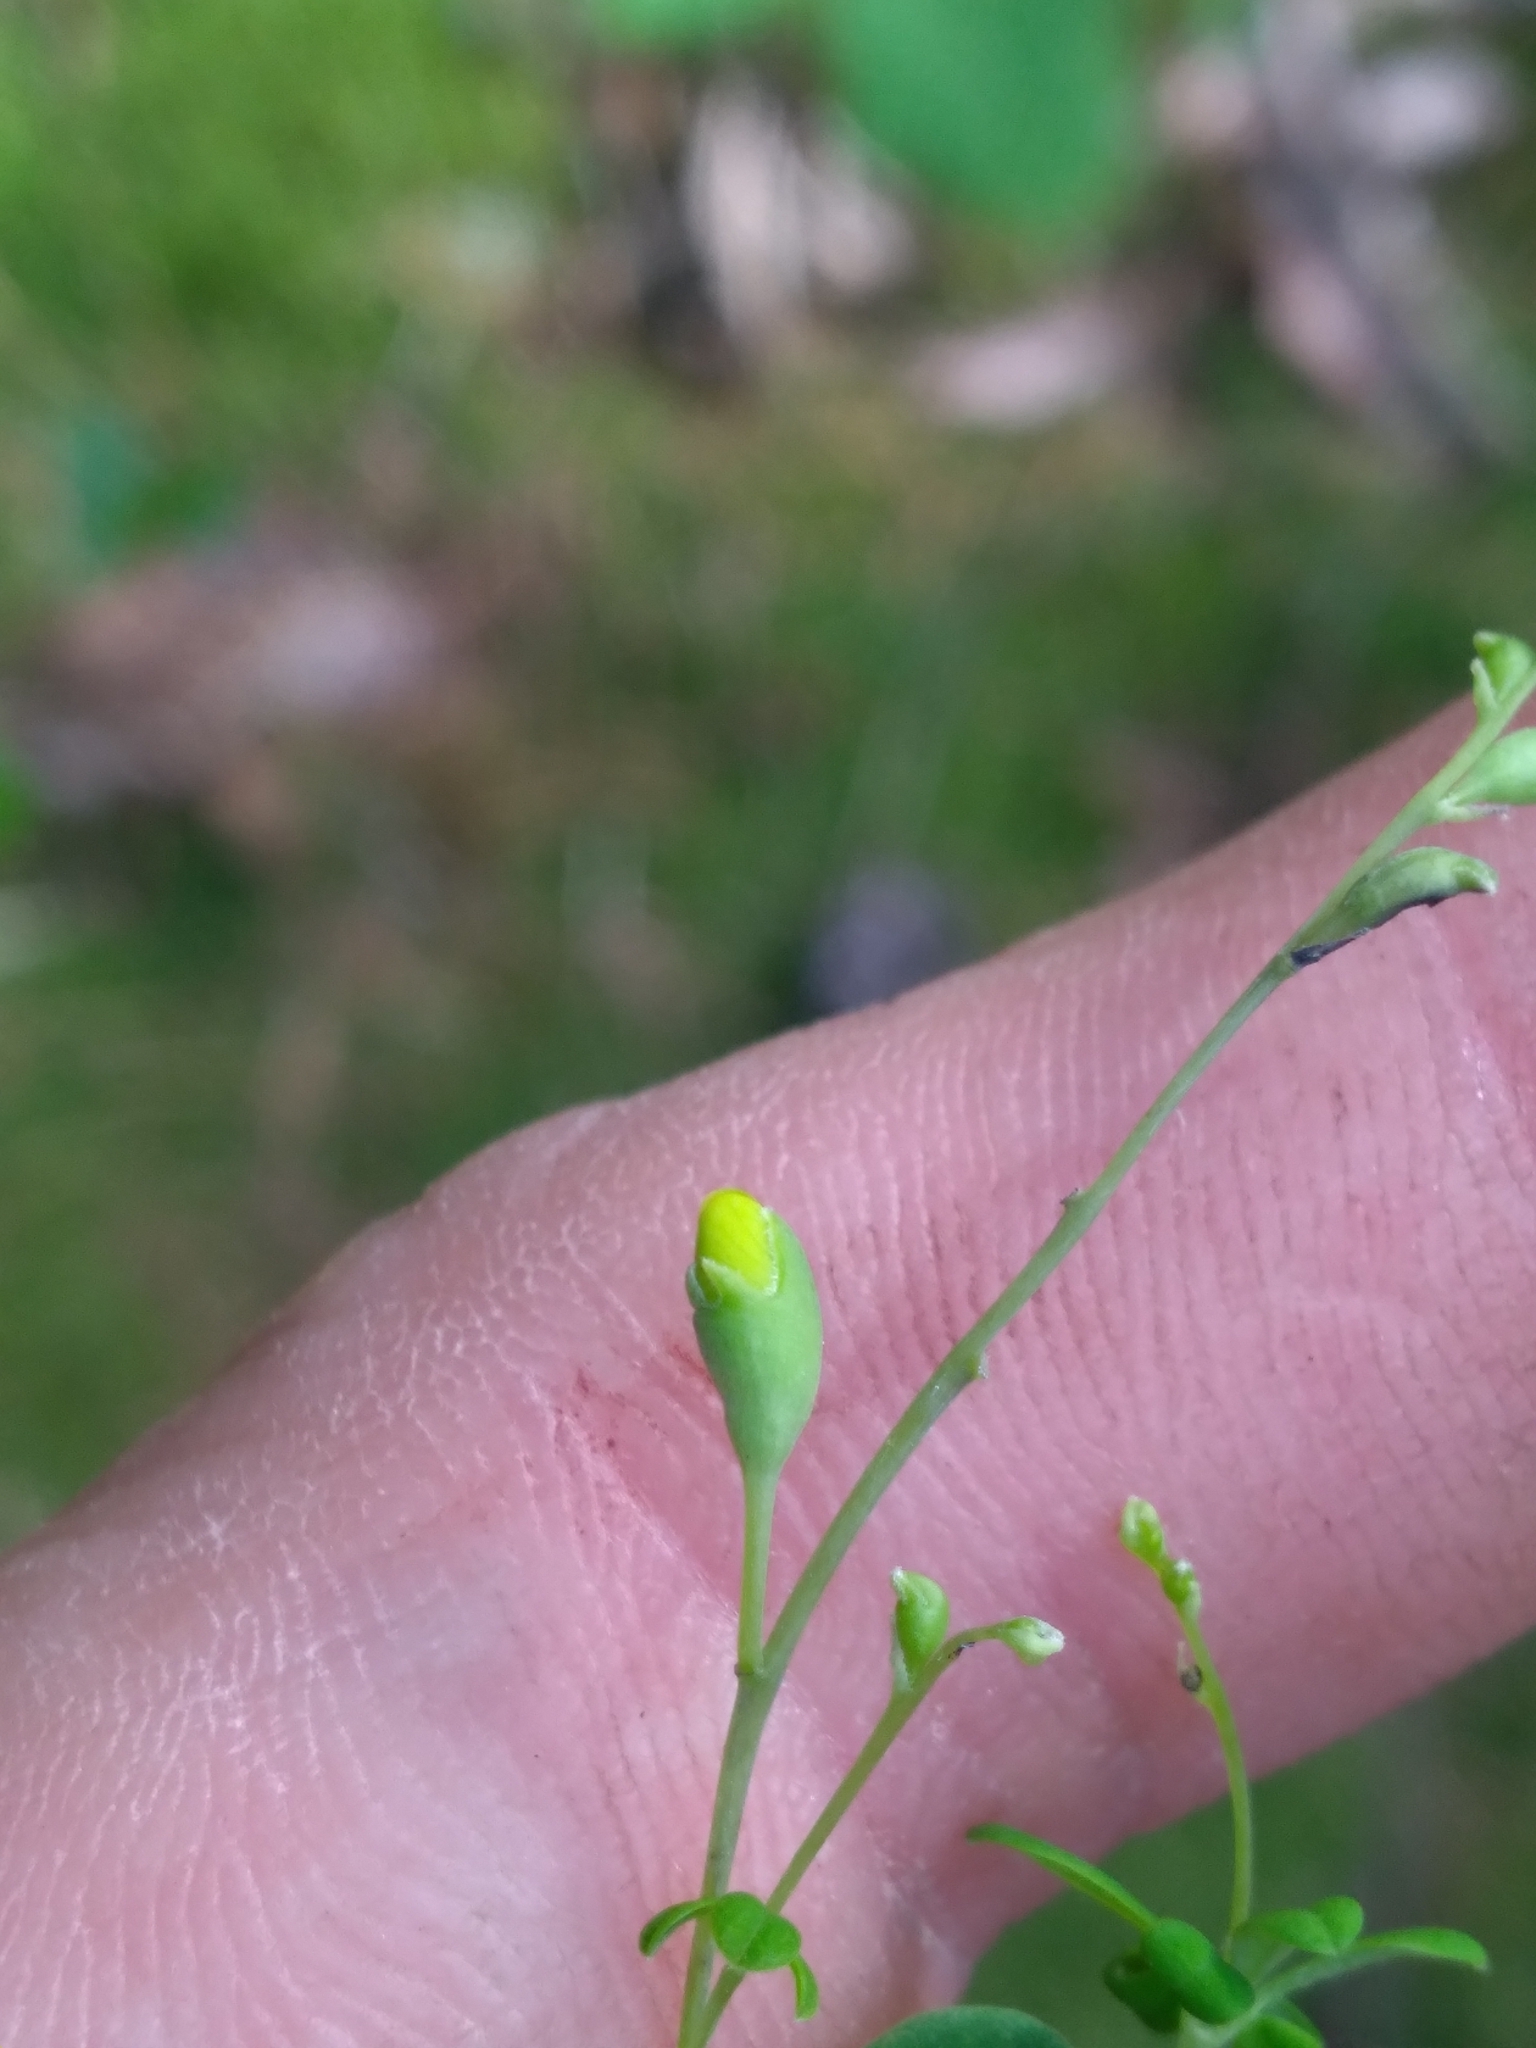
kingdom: Plantae
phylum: Tracheophyta
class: Magnoliopsida
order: Fabales
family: Fabaceae
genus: Baptisia
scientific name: Baptisia tinctoria
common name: Wild indigo
